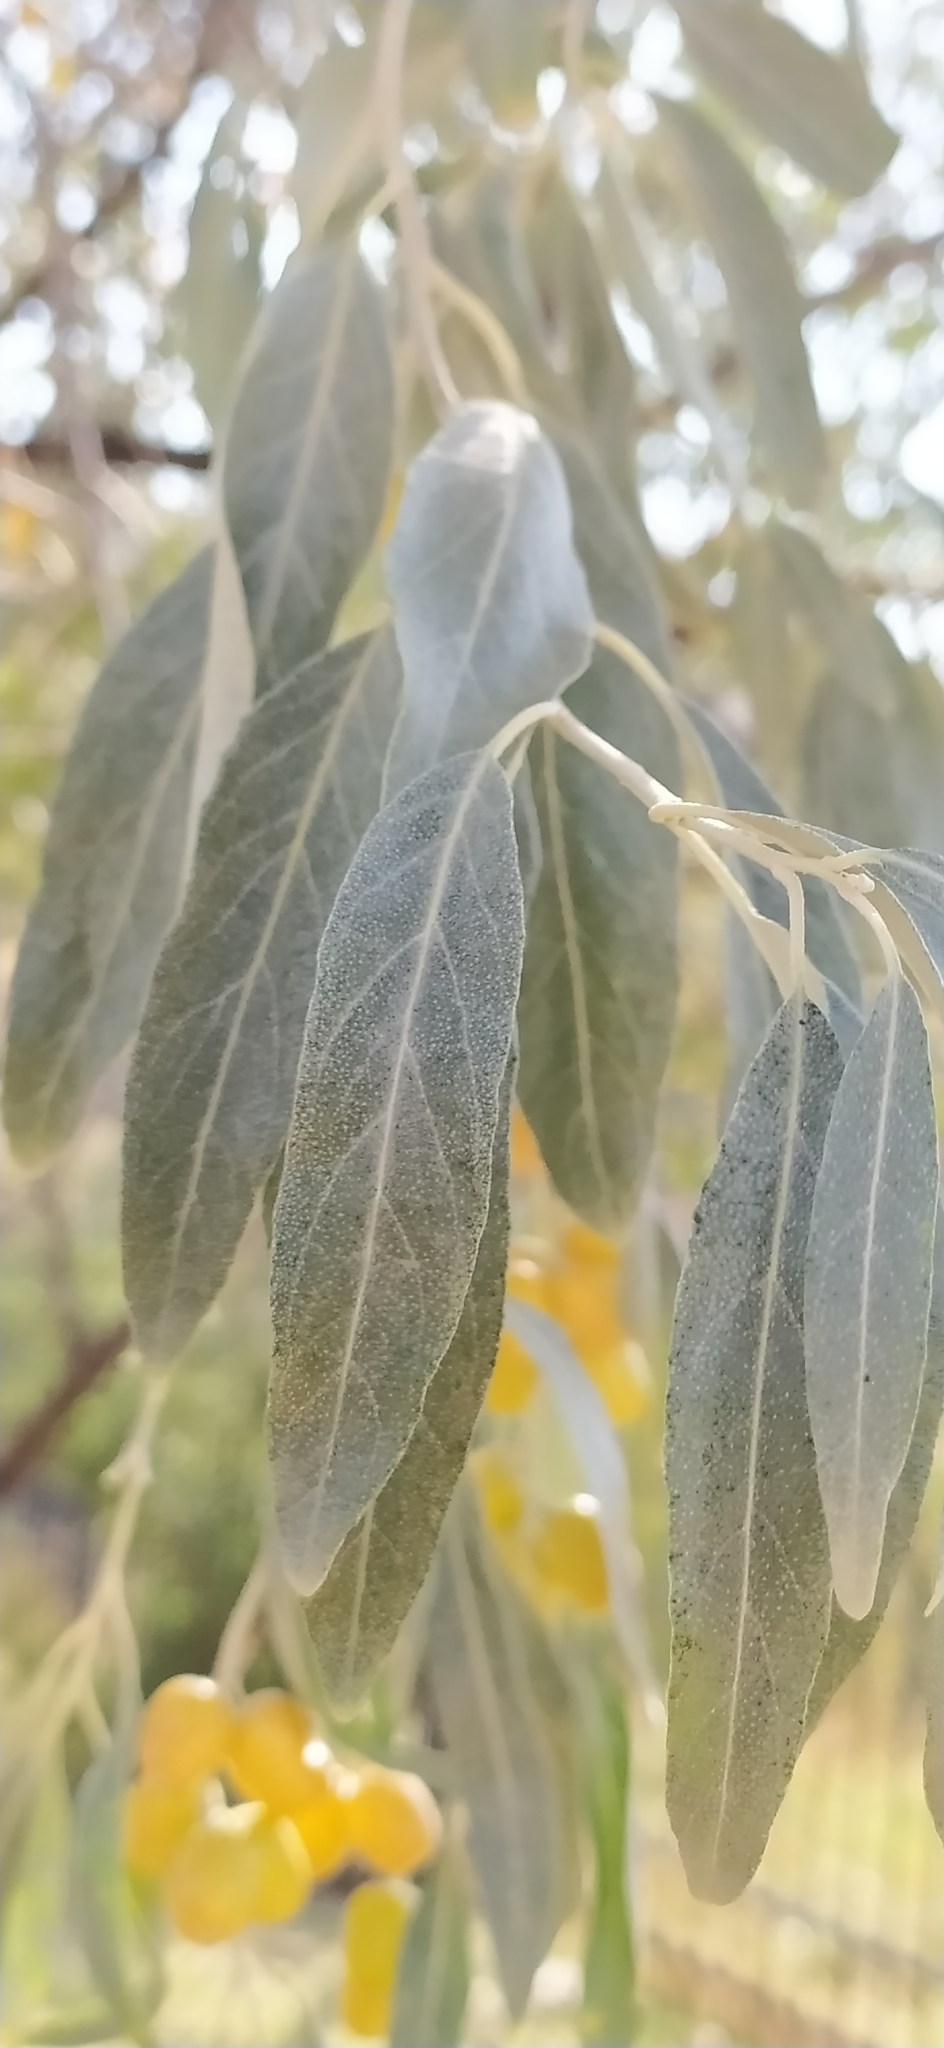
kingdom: Plantae
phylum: Tracheophyta
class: Magnoliopsida
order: Rosales
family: Elaeagnaceae
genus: Elaeagnus
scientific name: Elaeagnus angustifolia
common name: Russian olive
